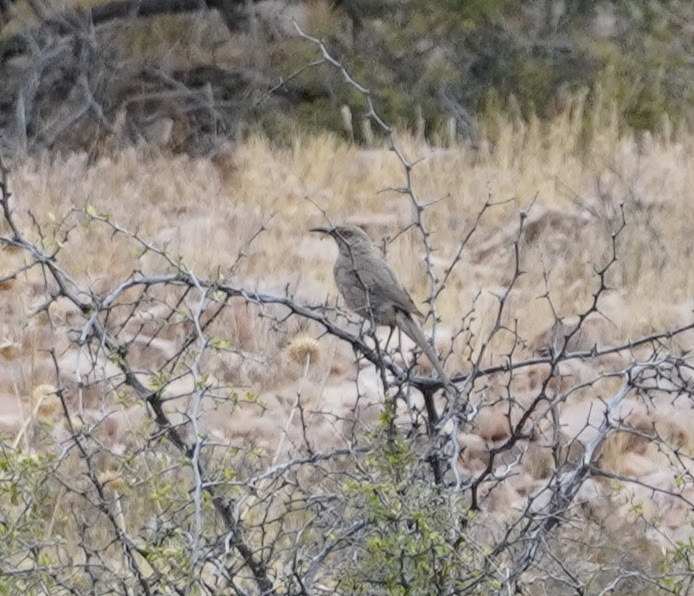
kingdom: Animalia
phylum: Chordata
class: Aves
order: Passeriformes
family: Mimidae
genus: Toxostoma
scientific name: Toxostoma curvirostre
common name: Curve-billed thrasher
